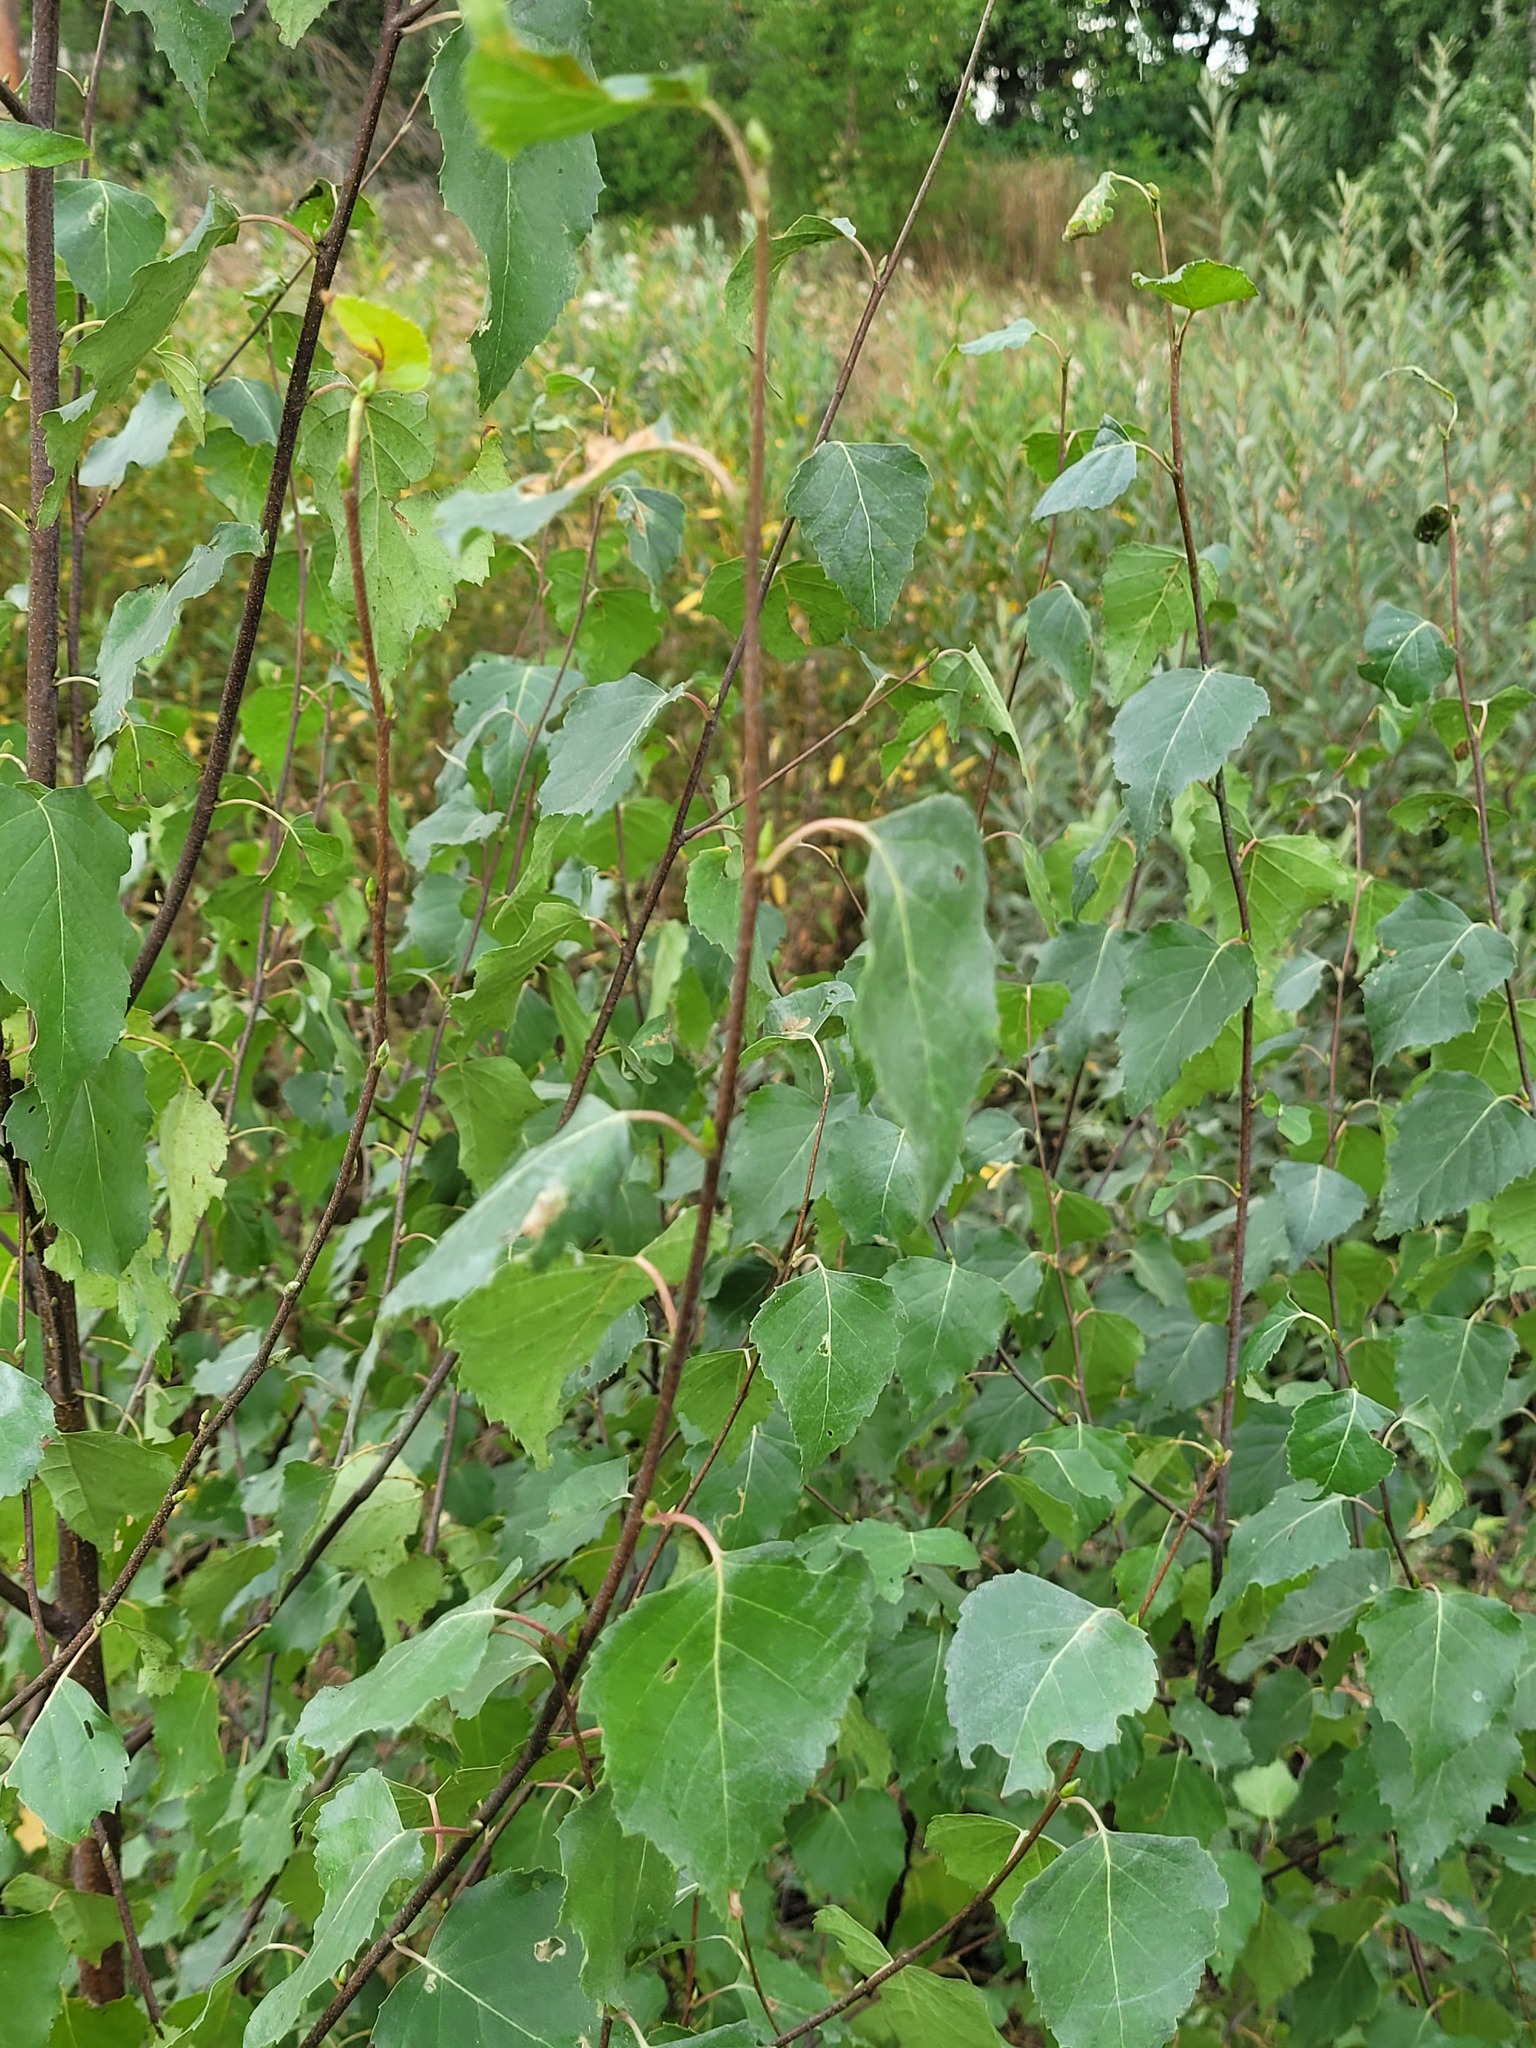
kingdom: Plantae
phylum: Tracheophyta
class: Magnoliopsida
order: Fagales
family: Betulaceae
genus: Betula
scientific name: Betula pendula
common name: Silver birch
